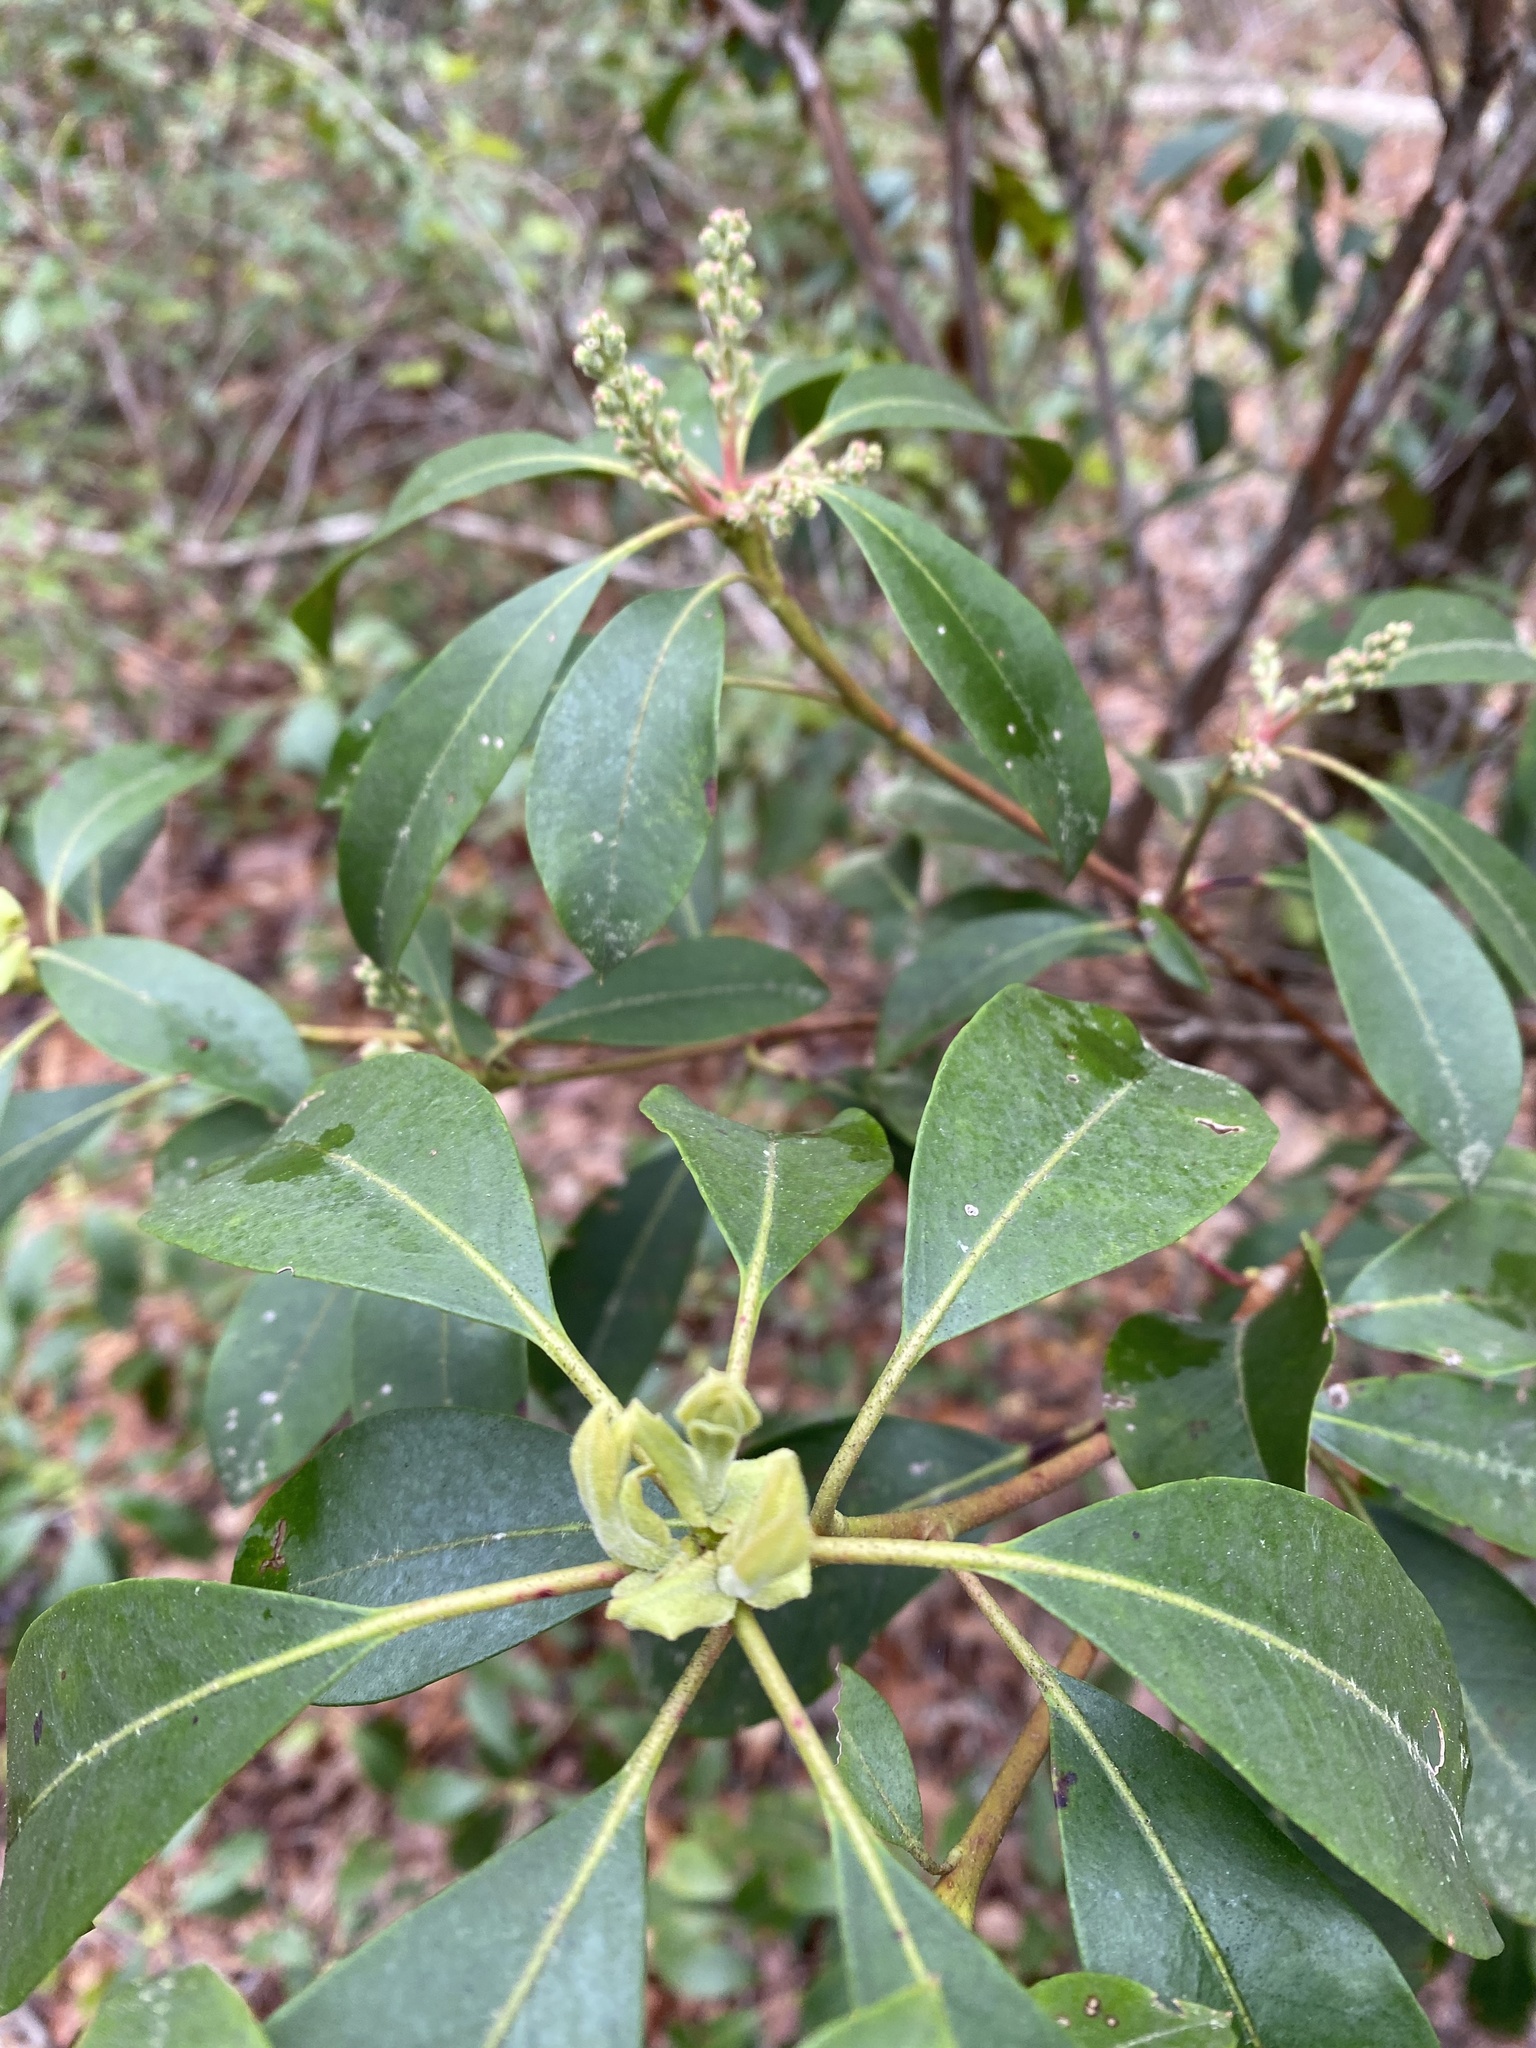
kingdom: Plantae
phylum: Tracheophyta
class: Magnoliopsida
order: Ericales
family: Ericaceae
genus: Kalmia
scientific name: Kalmia latifolia
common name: Mountain-laurel
